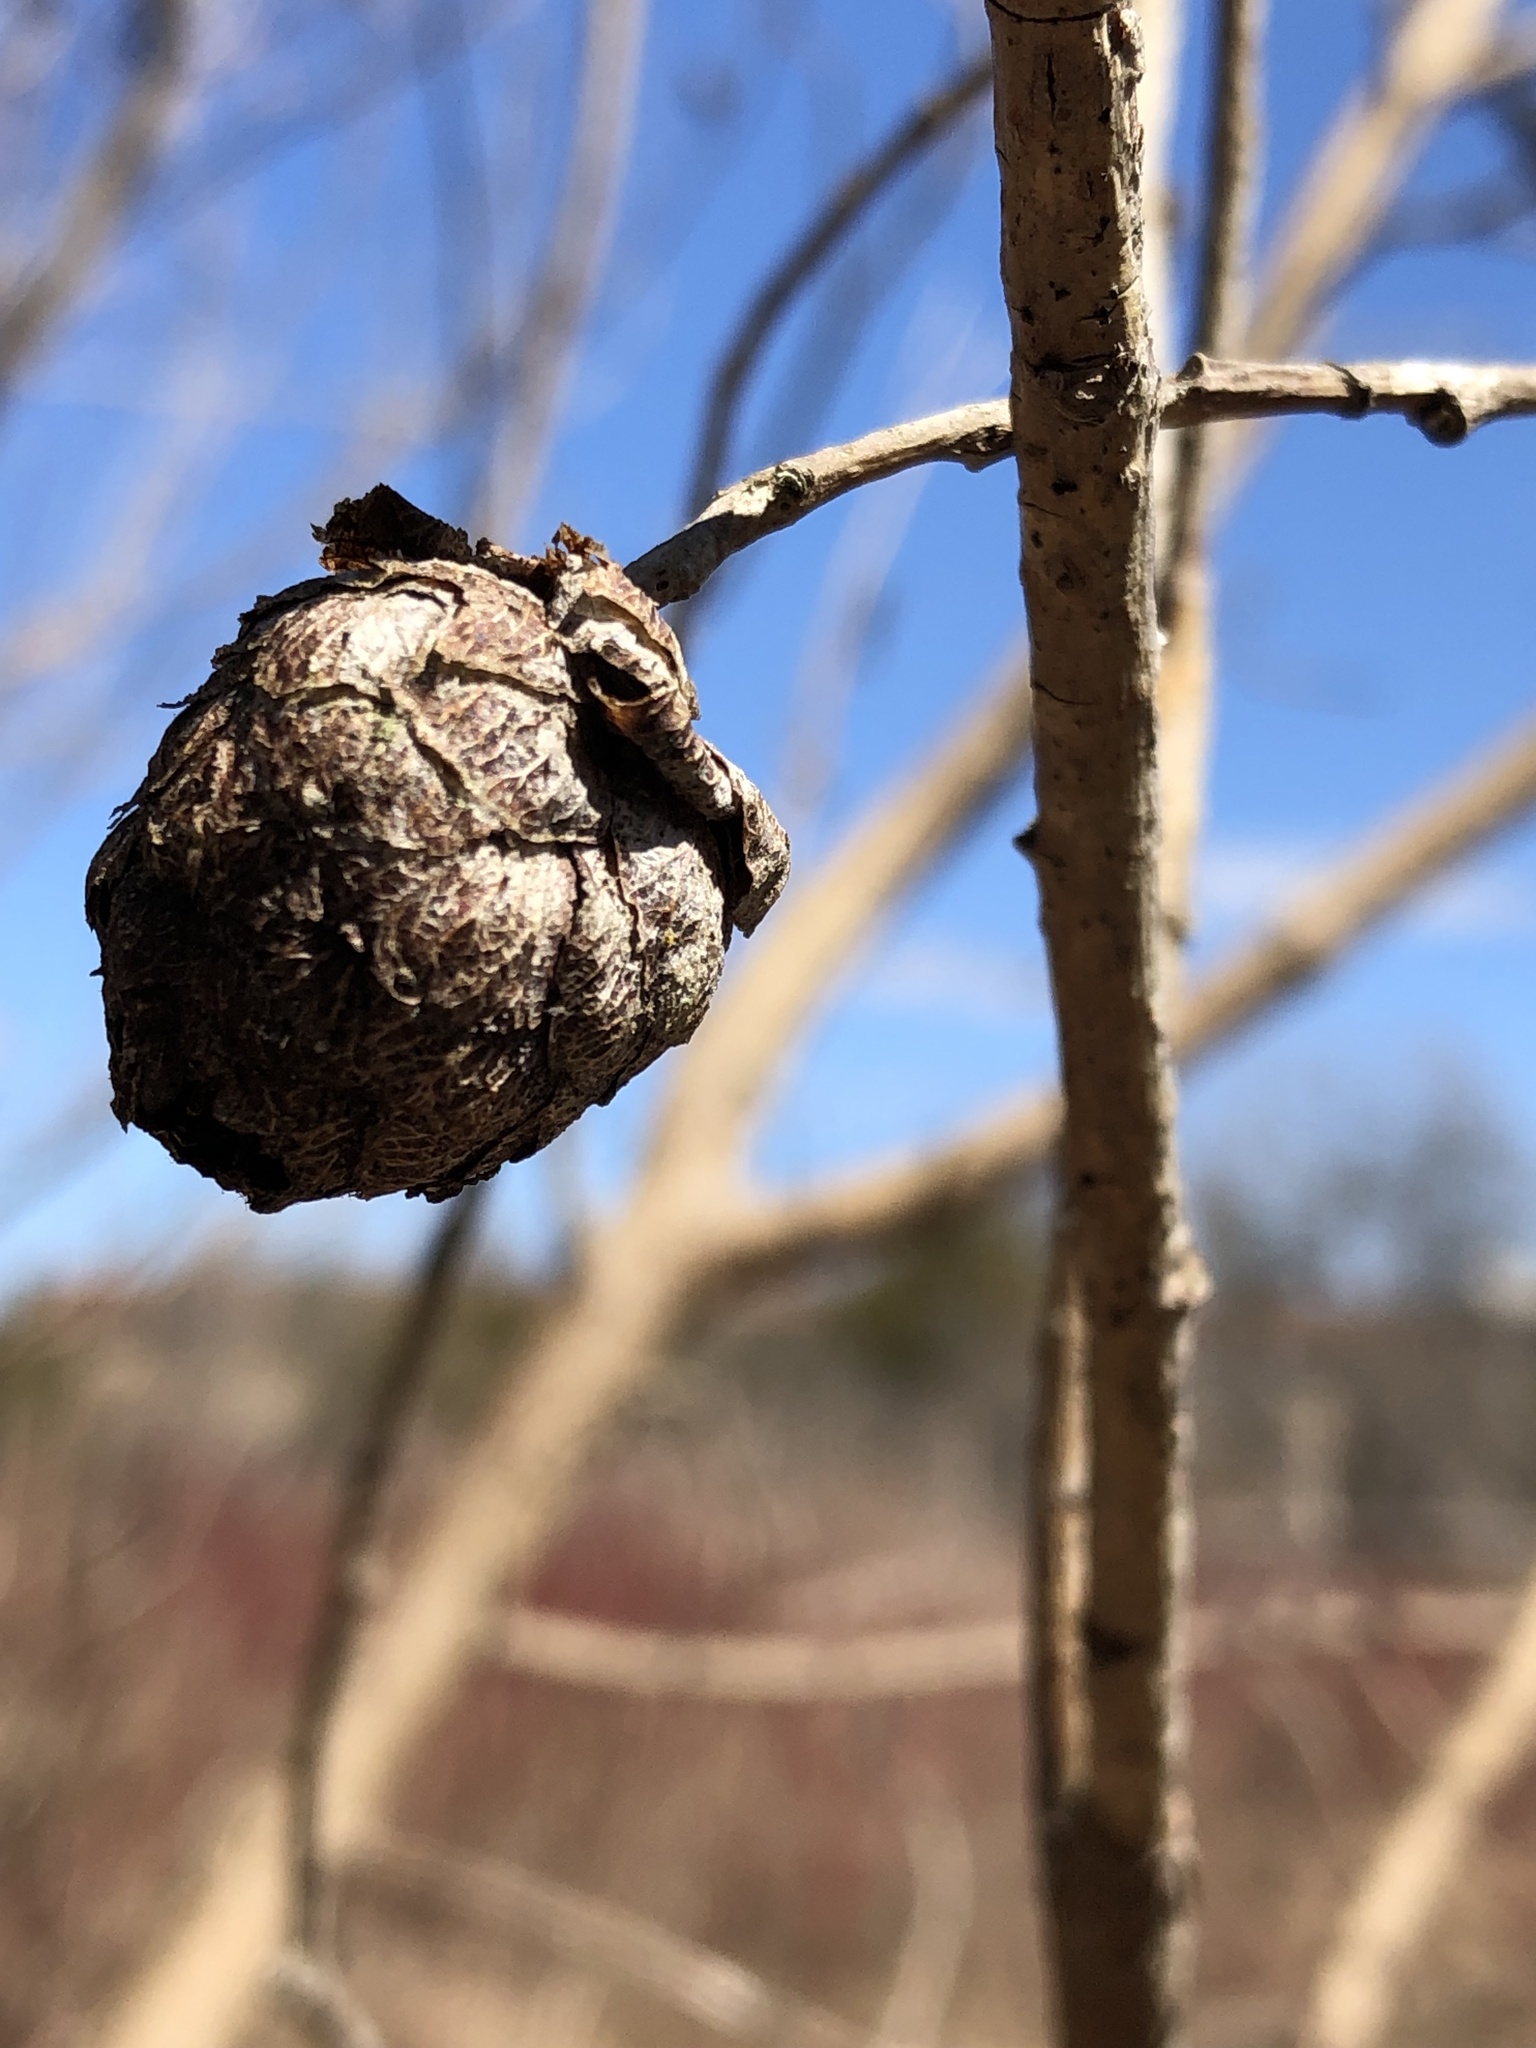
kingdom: Animalia
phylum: Arthropoda
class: Insecta
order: Diptera
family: Cecidomyiidae
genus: Rabdophaga
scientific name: Rabdophaga strobiloides
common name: Willow pinecone gall midge
